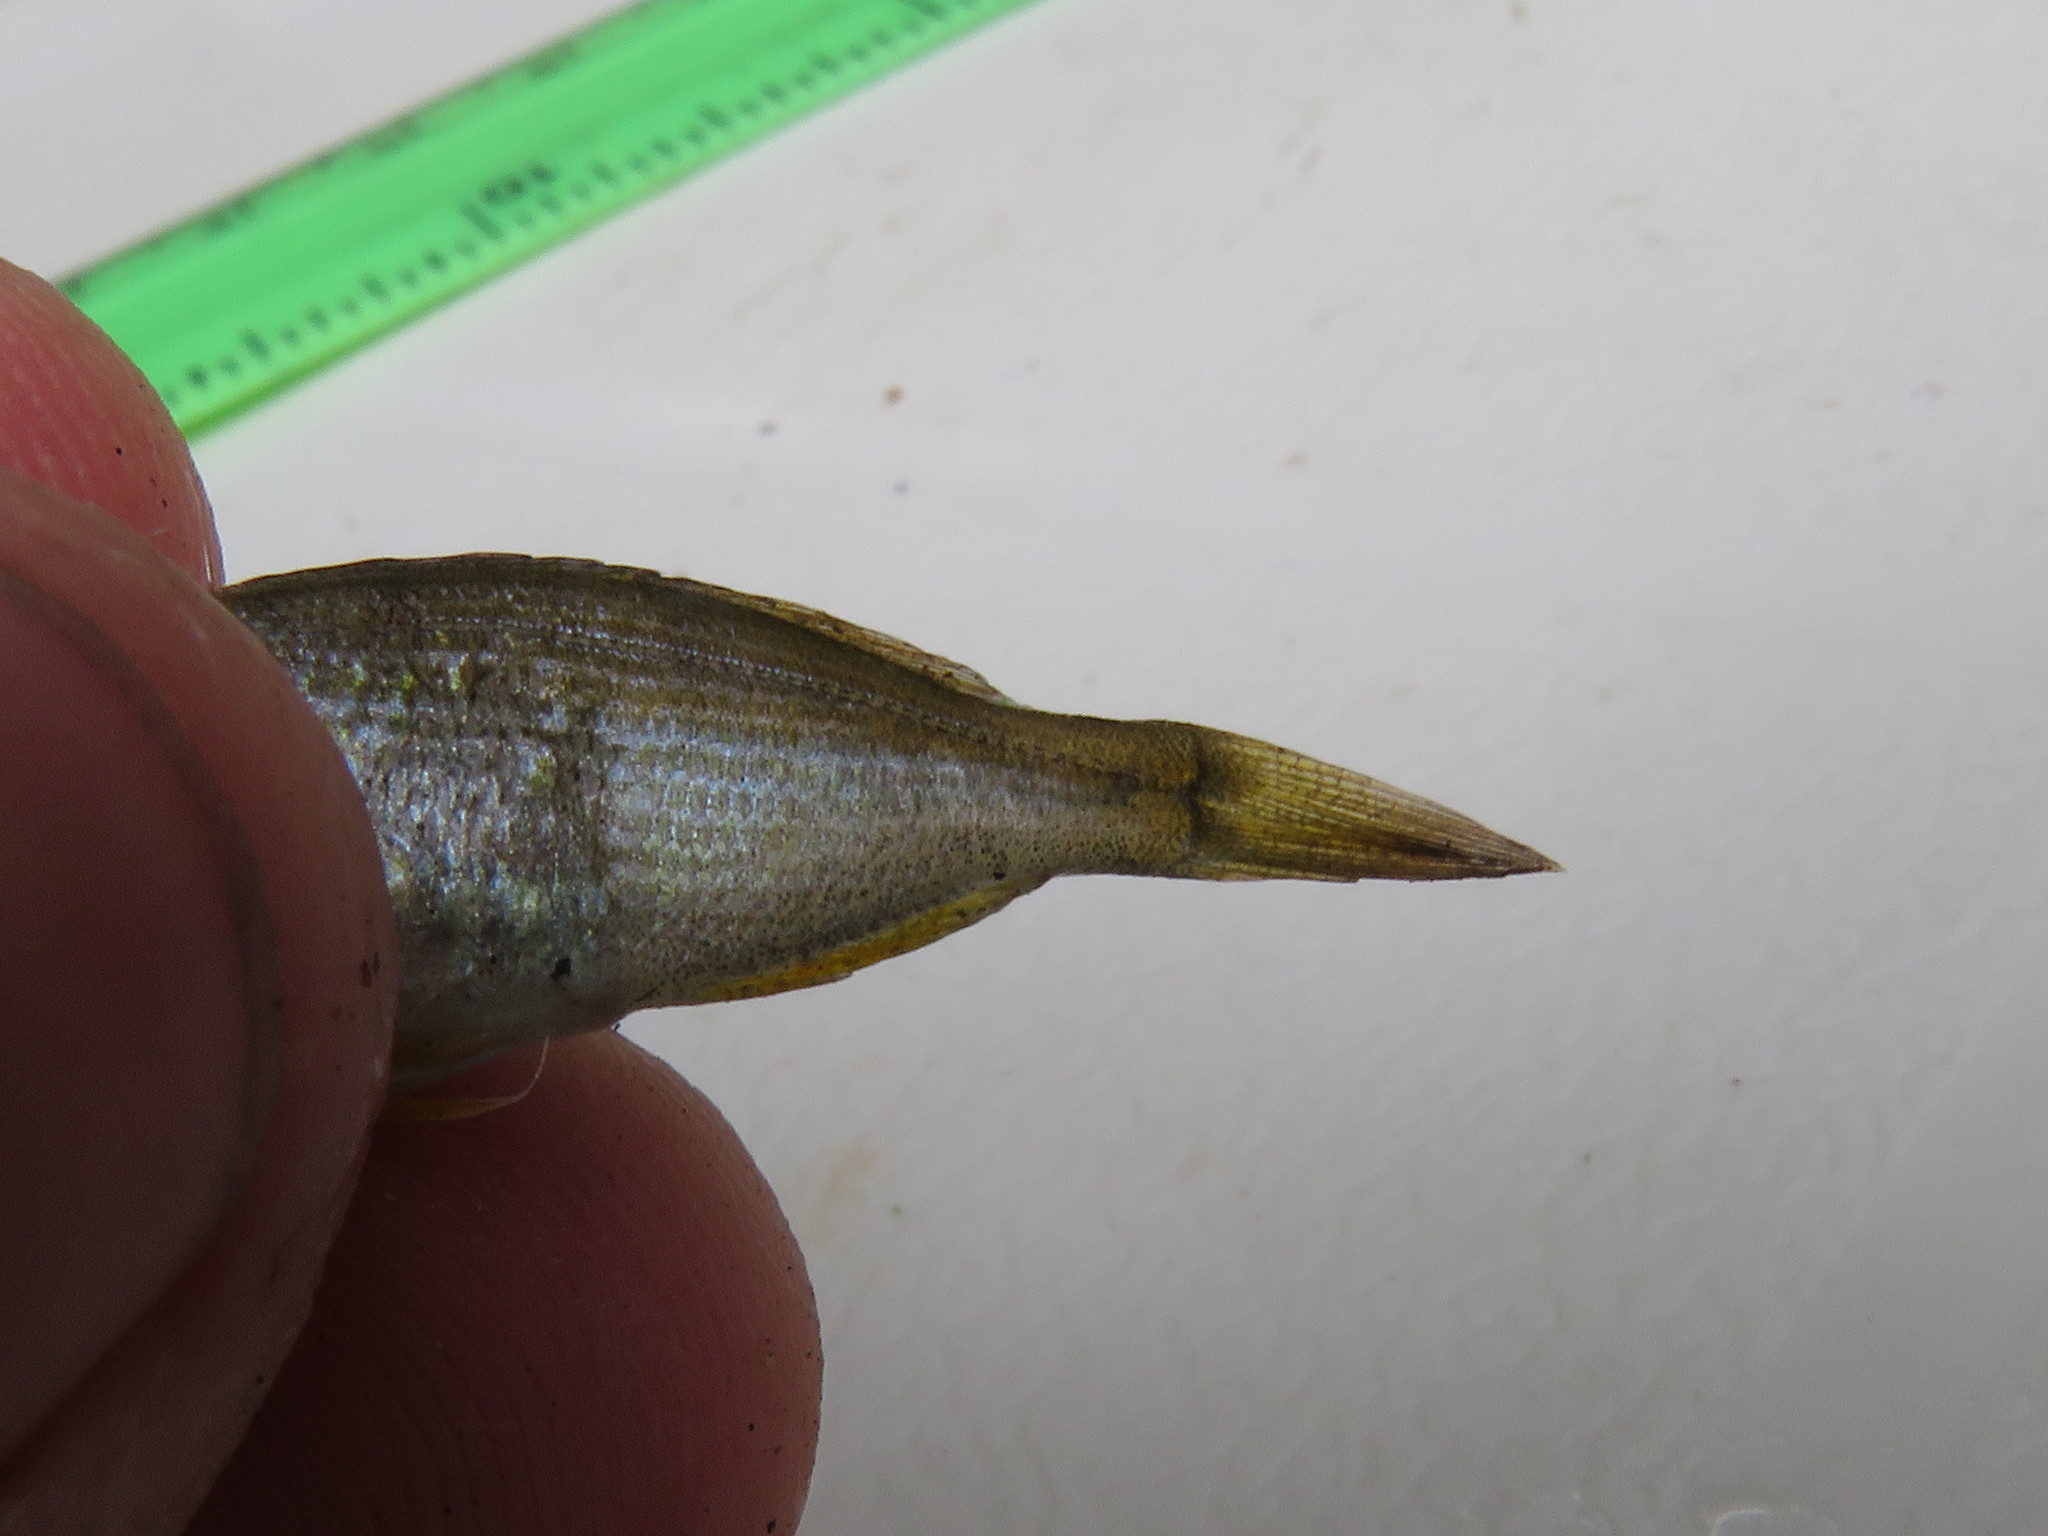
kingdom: Animalia
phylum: Chordata
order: Perciformes
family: Sparidae
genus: Rhabdosargus
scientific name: Rhabdosargus holubi
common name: Cape stumpnose
